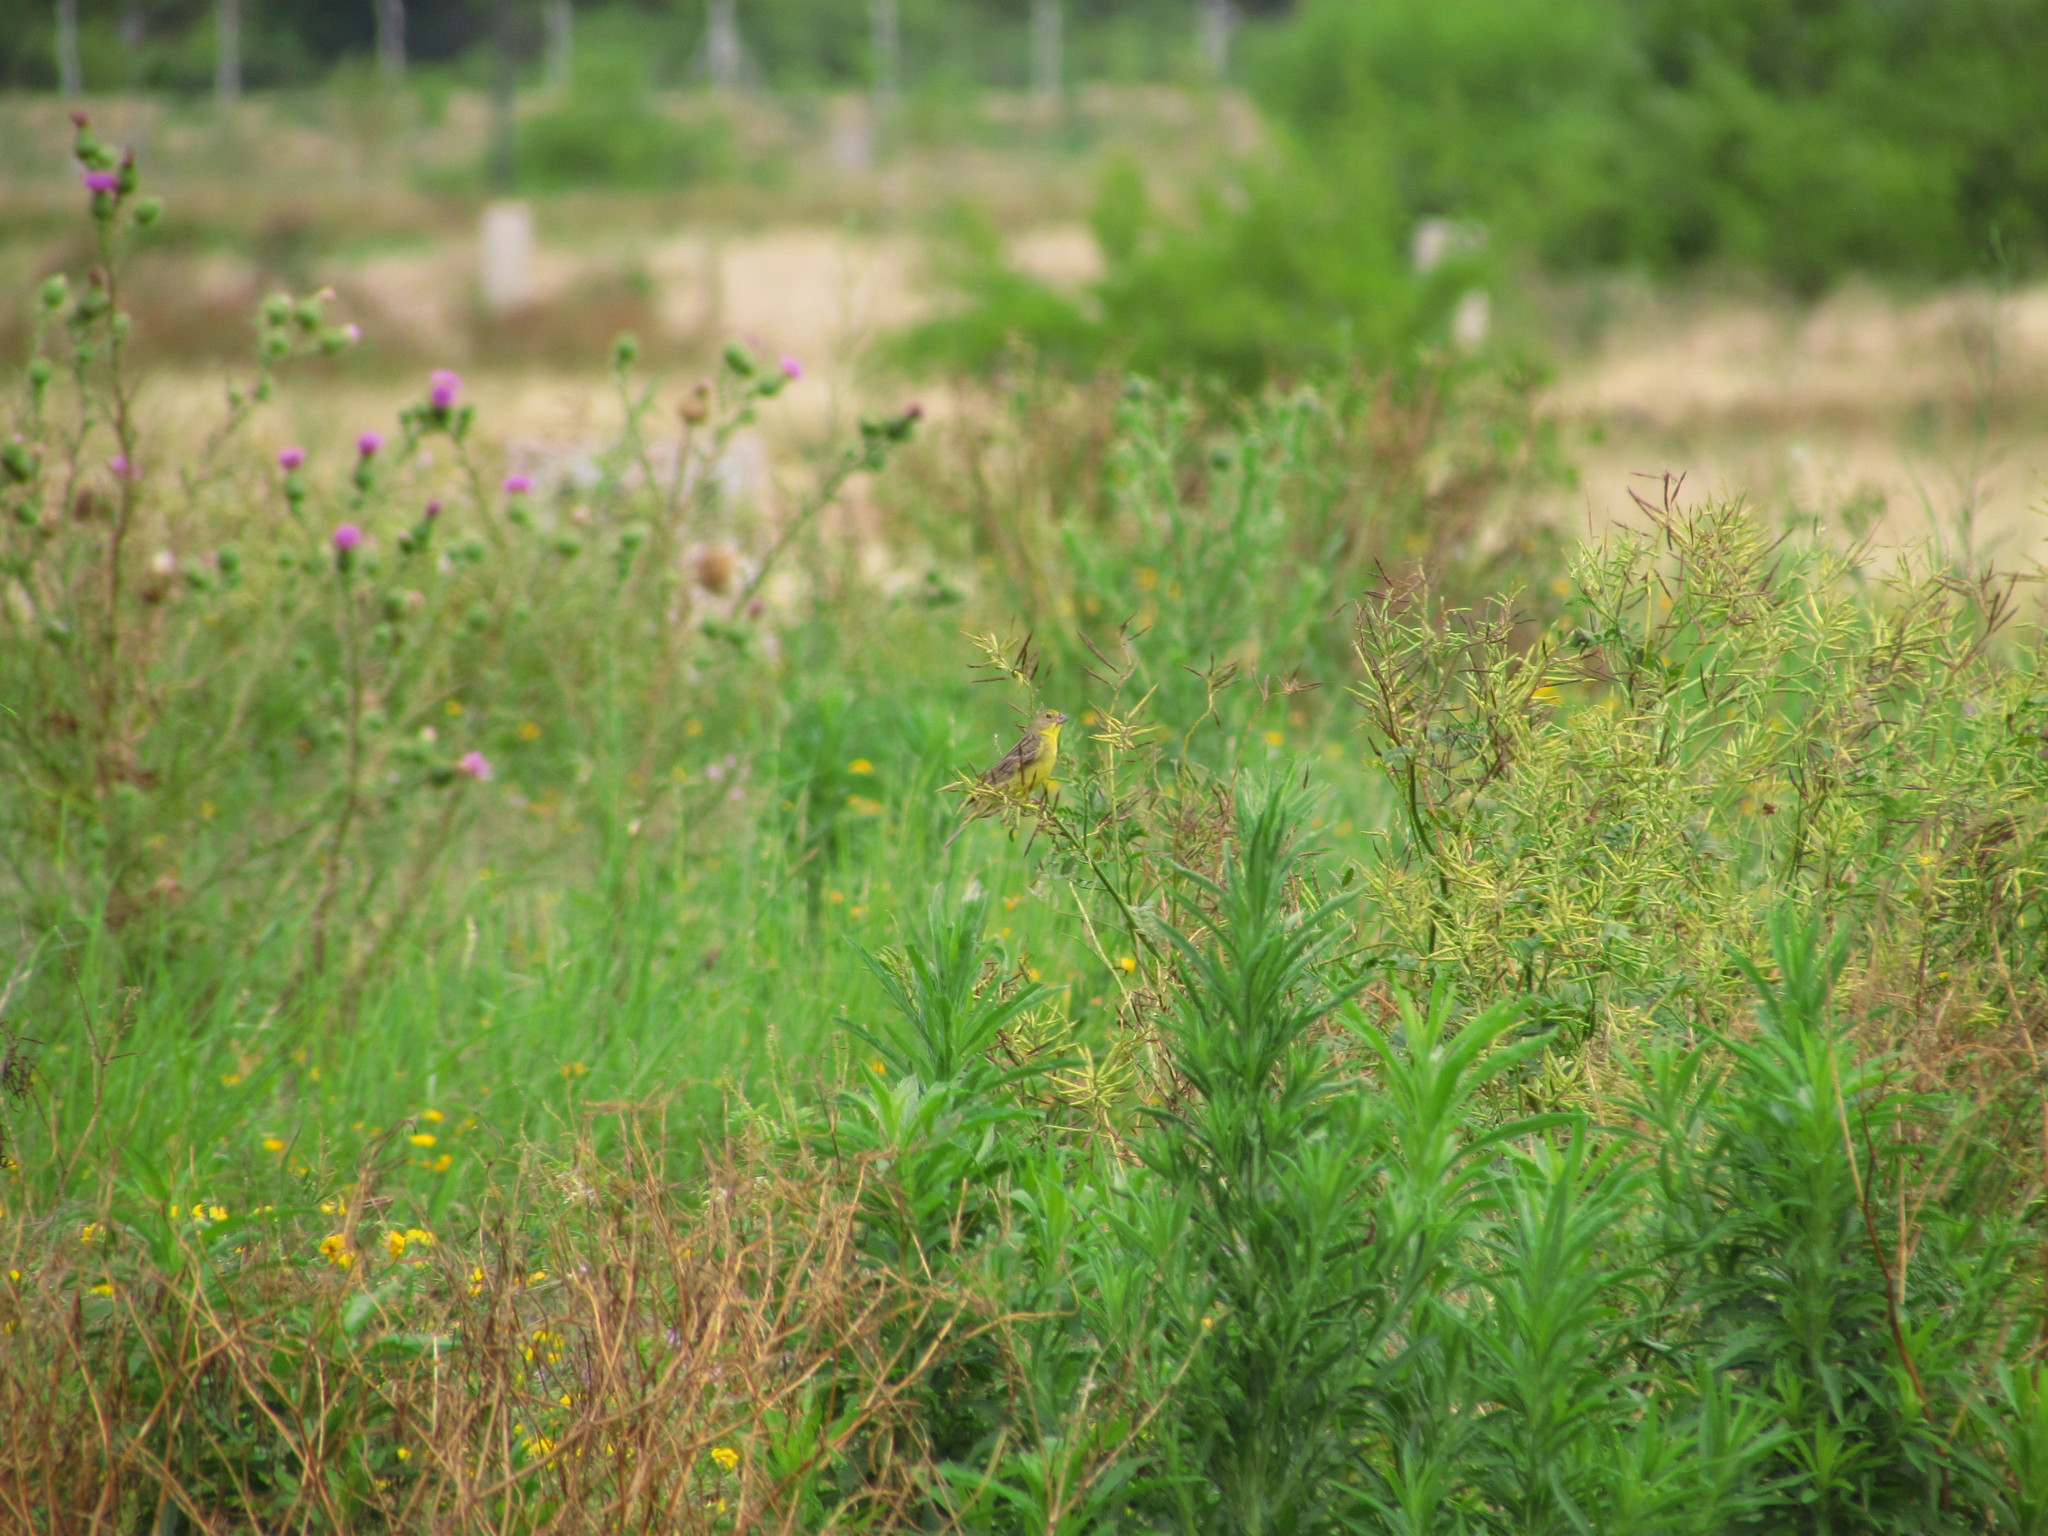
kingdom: Animalia
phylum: Chordata
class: Aves
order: Passeriformes
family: Thraupidae
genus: Sicalis
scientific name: Sicalis luteola
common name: Grassland yellow-finch
